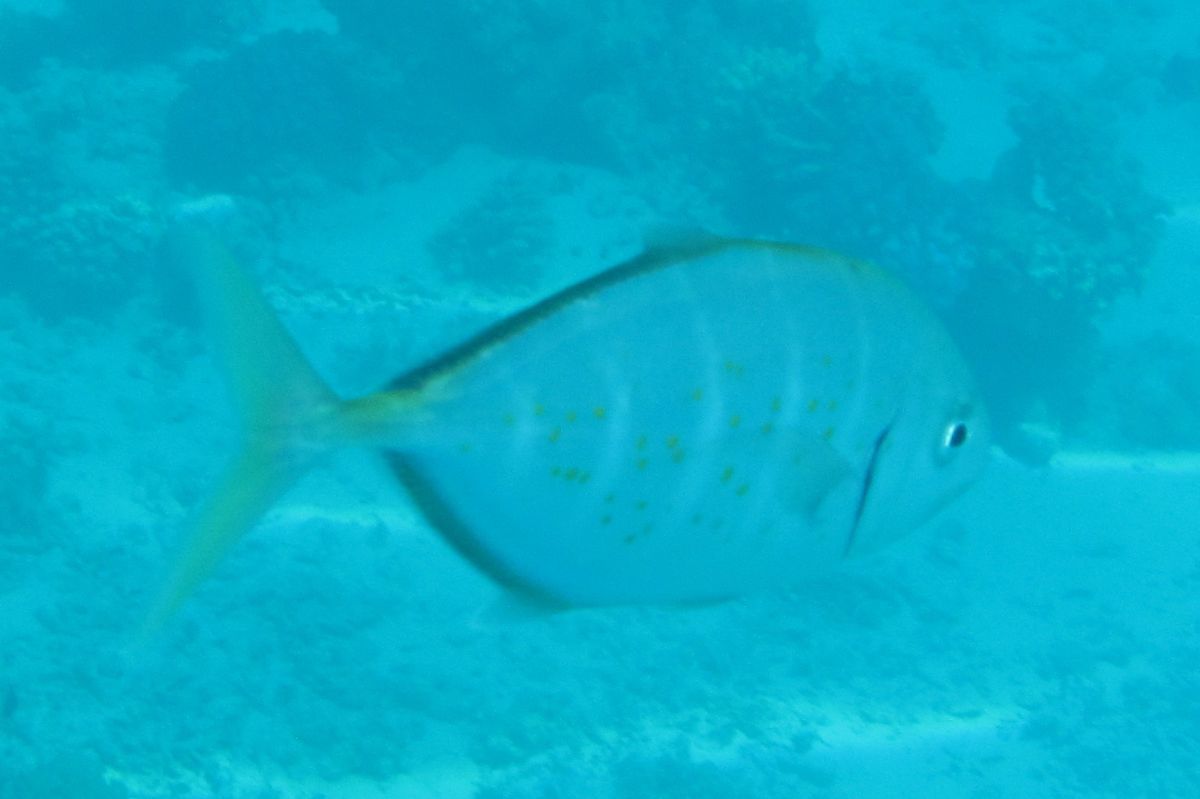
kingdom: Animalia
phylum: Chordata
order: Perciformes
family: Carangidae
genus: Flavocaranx
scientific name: Flavocaranx bajad
